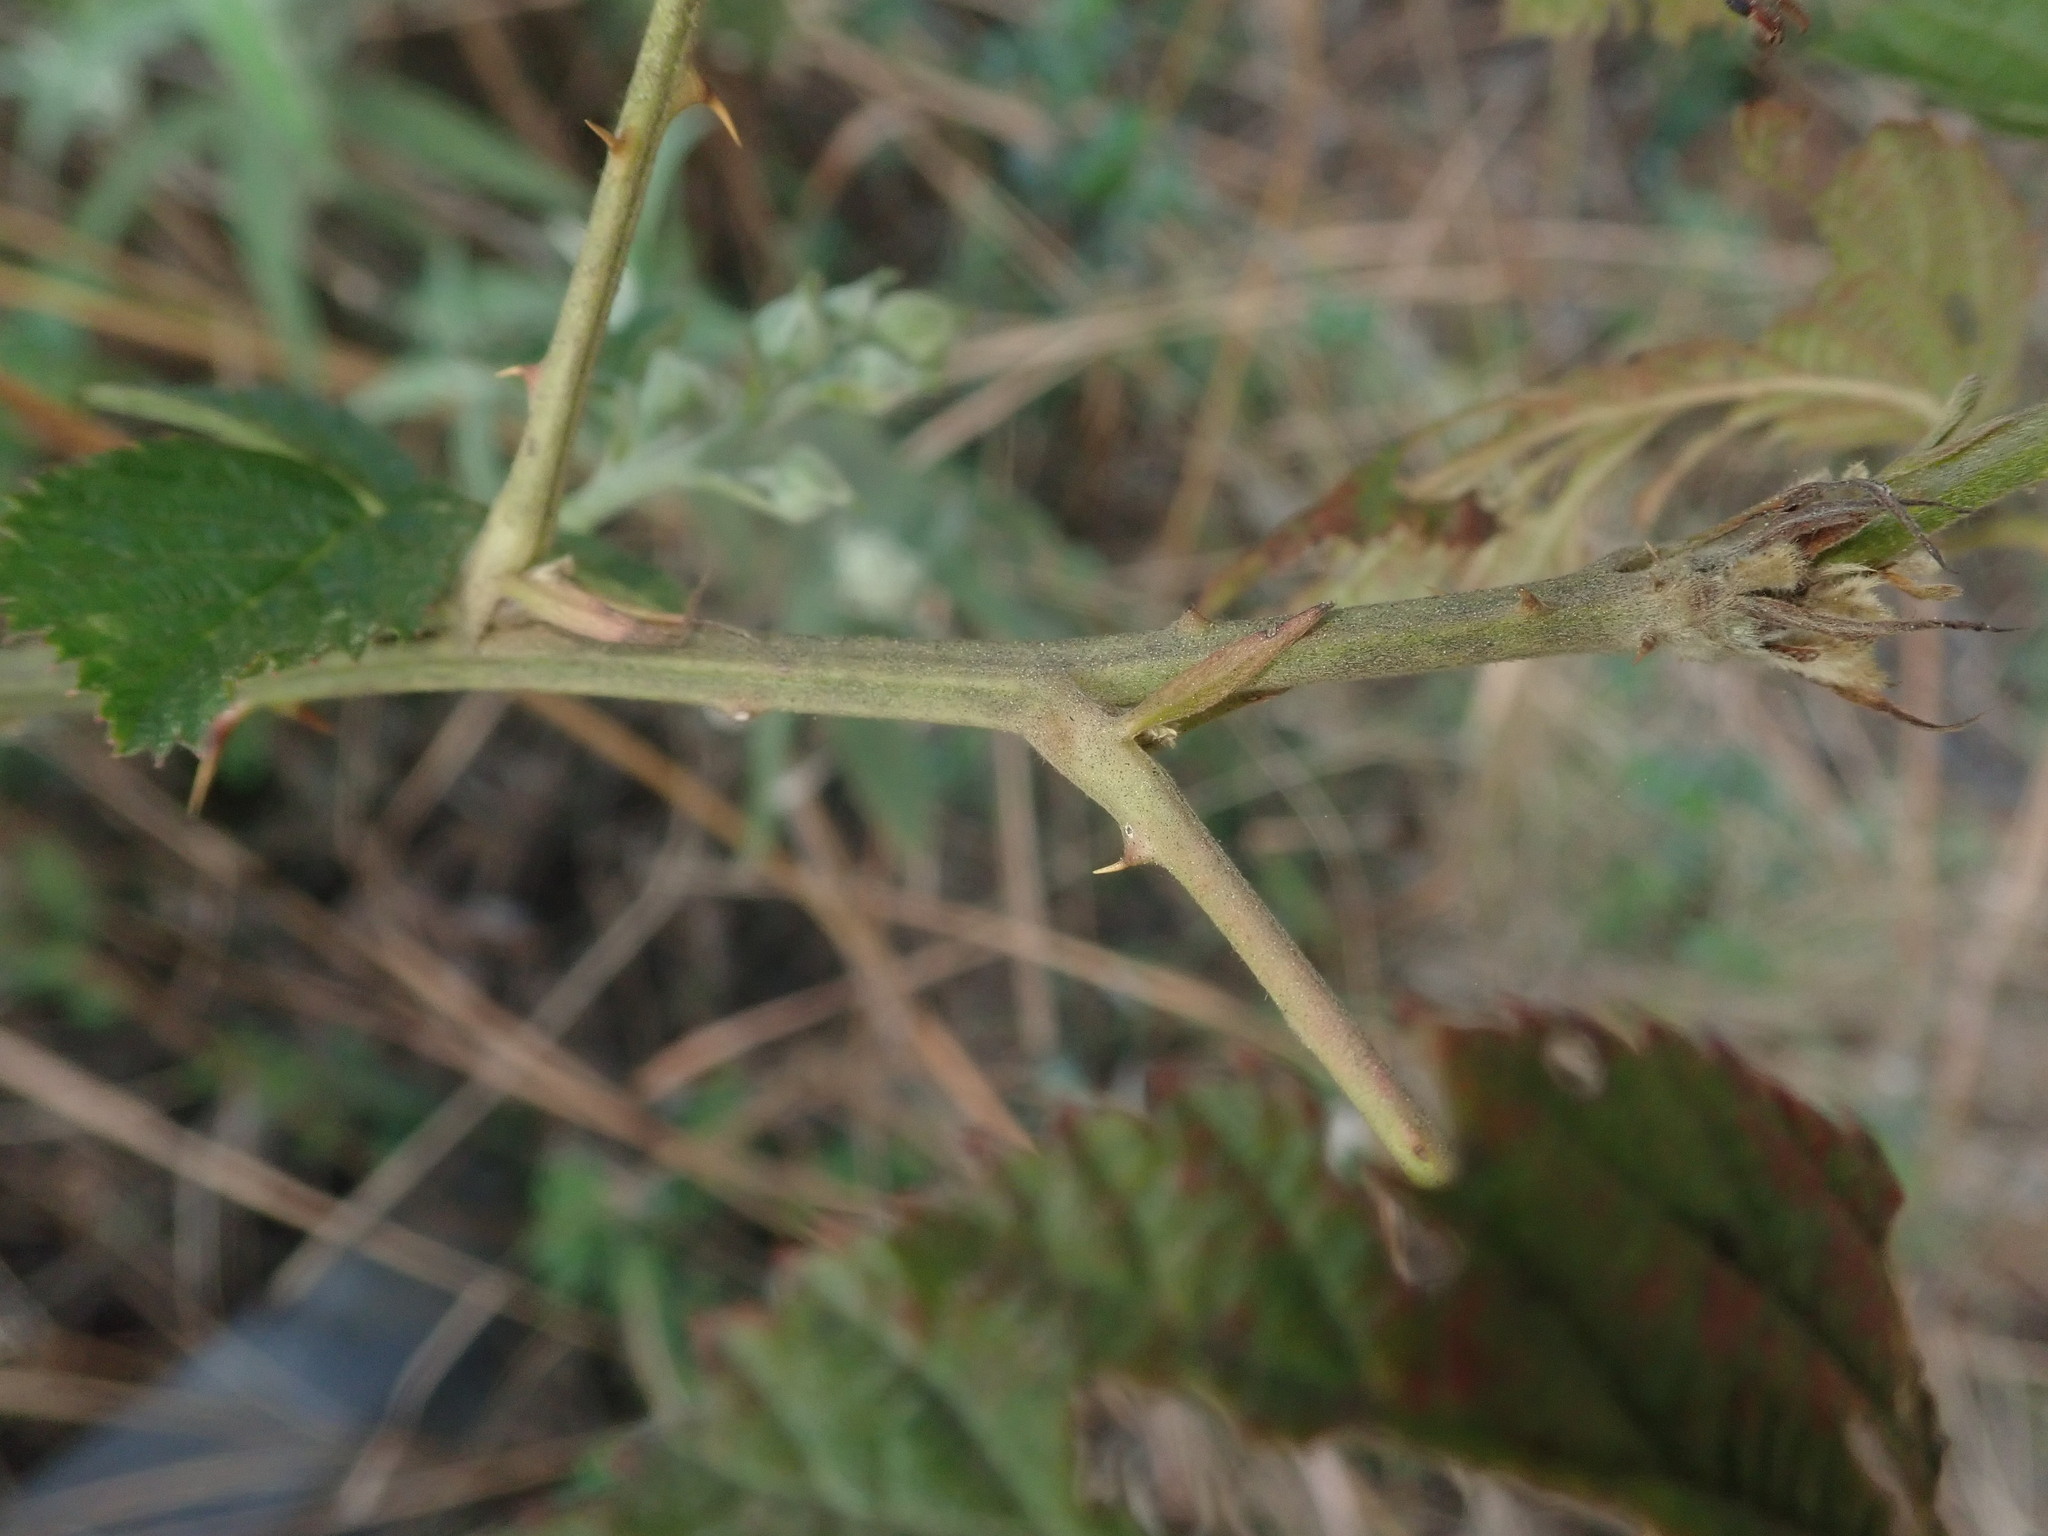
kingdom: Plantae
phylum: Tracheophyta
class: Magnoliopsida
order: Rosales
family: Rosaceae
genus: Rubus
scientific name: Rubus rigidus
